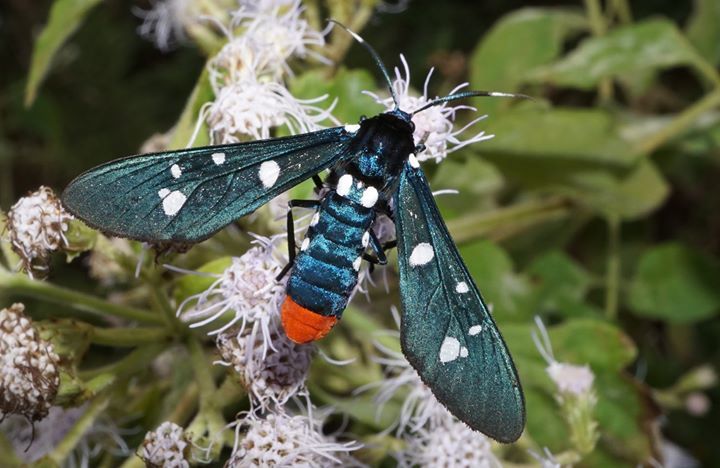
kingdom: Animalia
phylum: Arthropoda
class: Insecta
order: Lepidoptera
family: Erebidae
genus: Syntomeida
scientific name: Syntomeida epilais
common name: Polka-dot wasp moth
